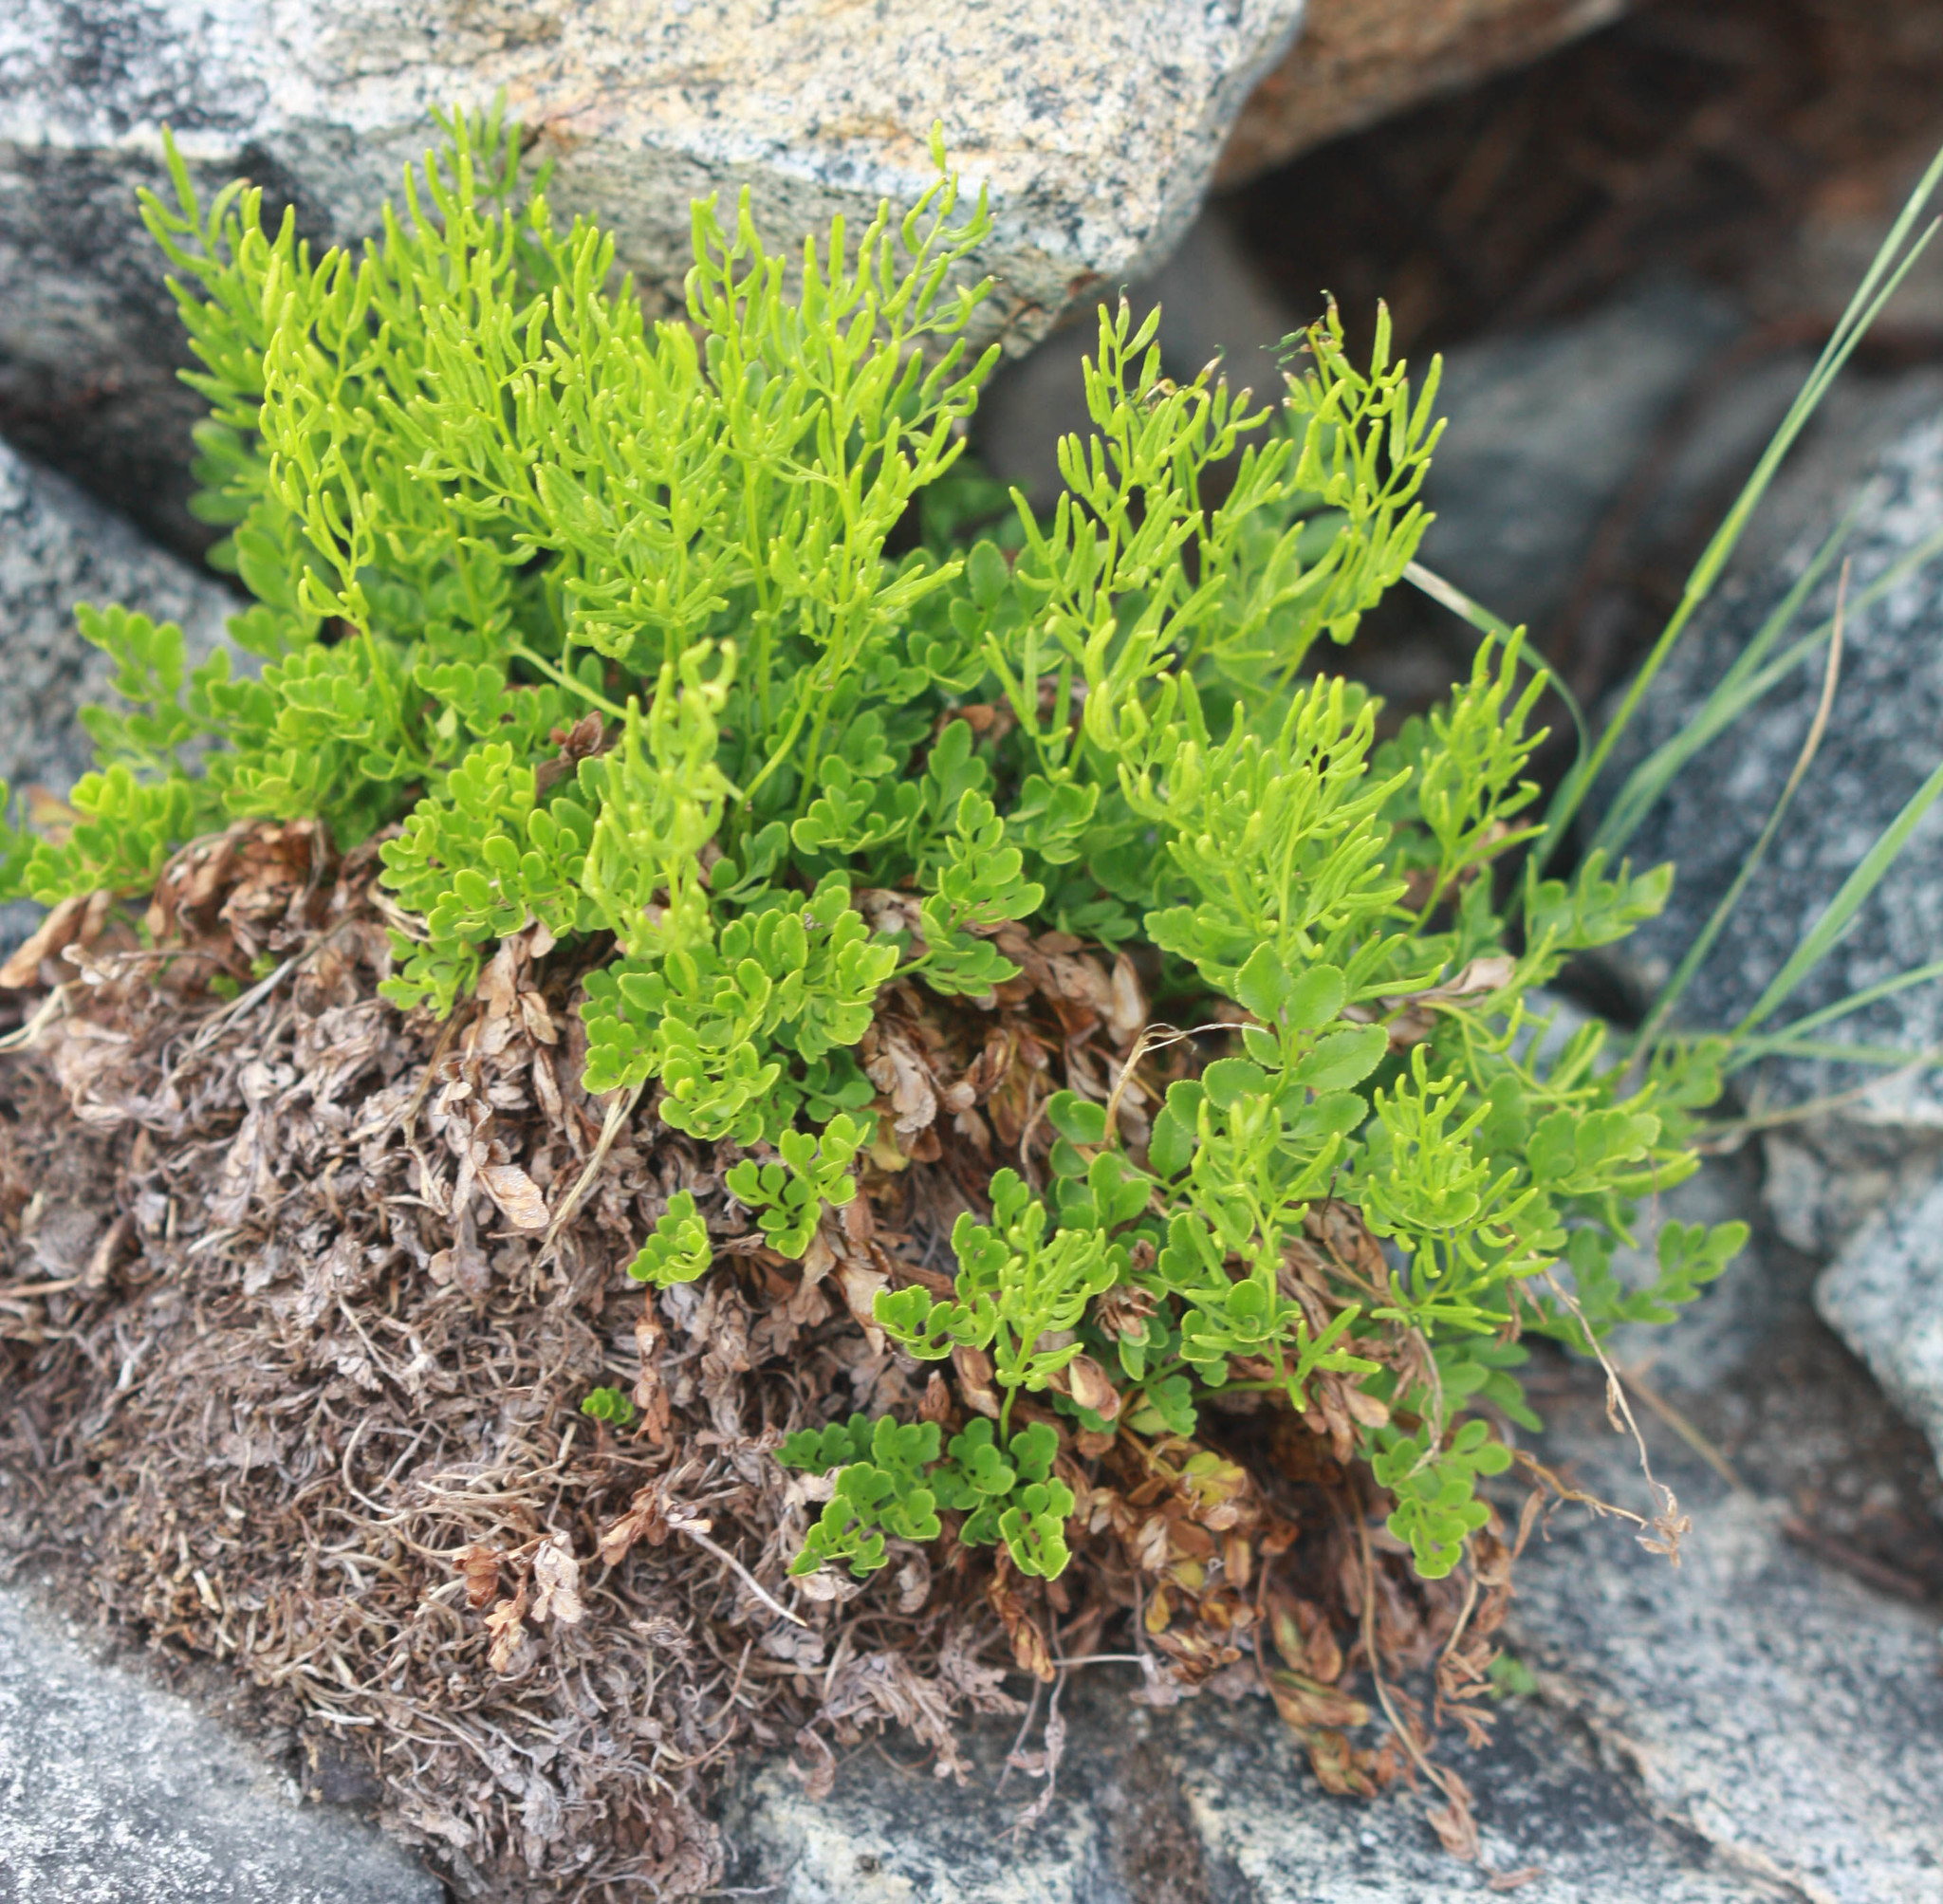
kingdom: Plantae
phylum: Tracheophyta
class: Polypodiopsida
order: Polypodiales
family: Pteridaceae
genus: Cryptogramma
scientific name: Cryptogramma acrostichoides
